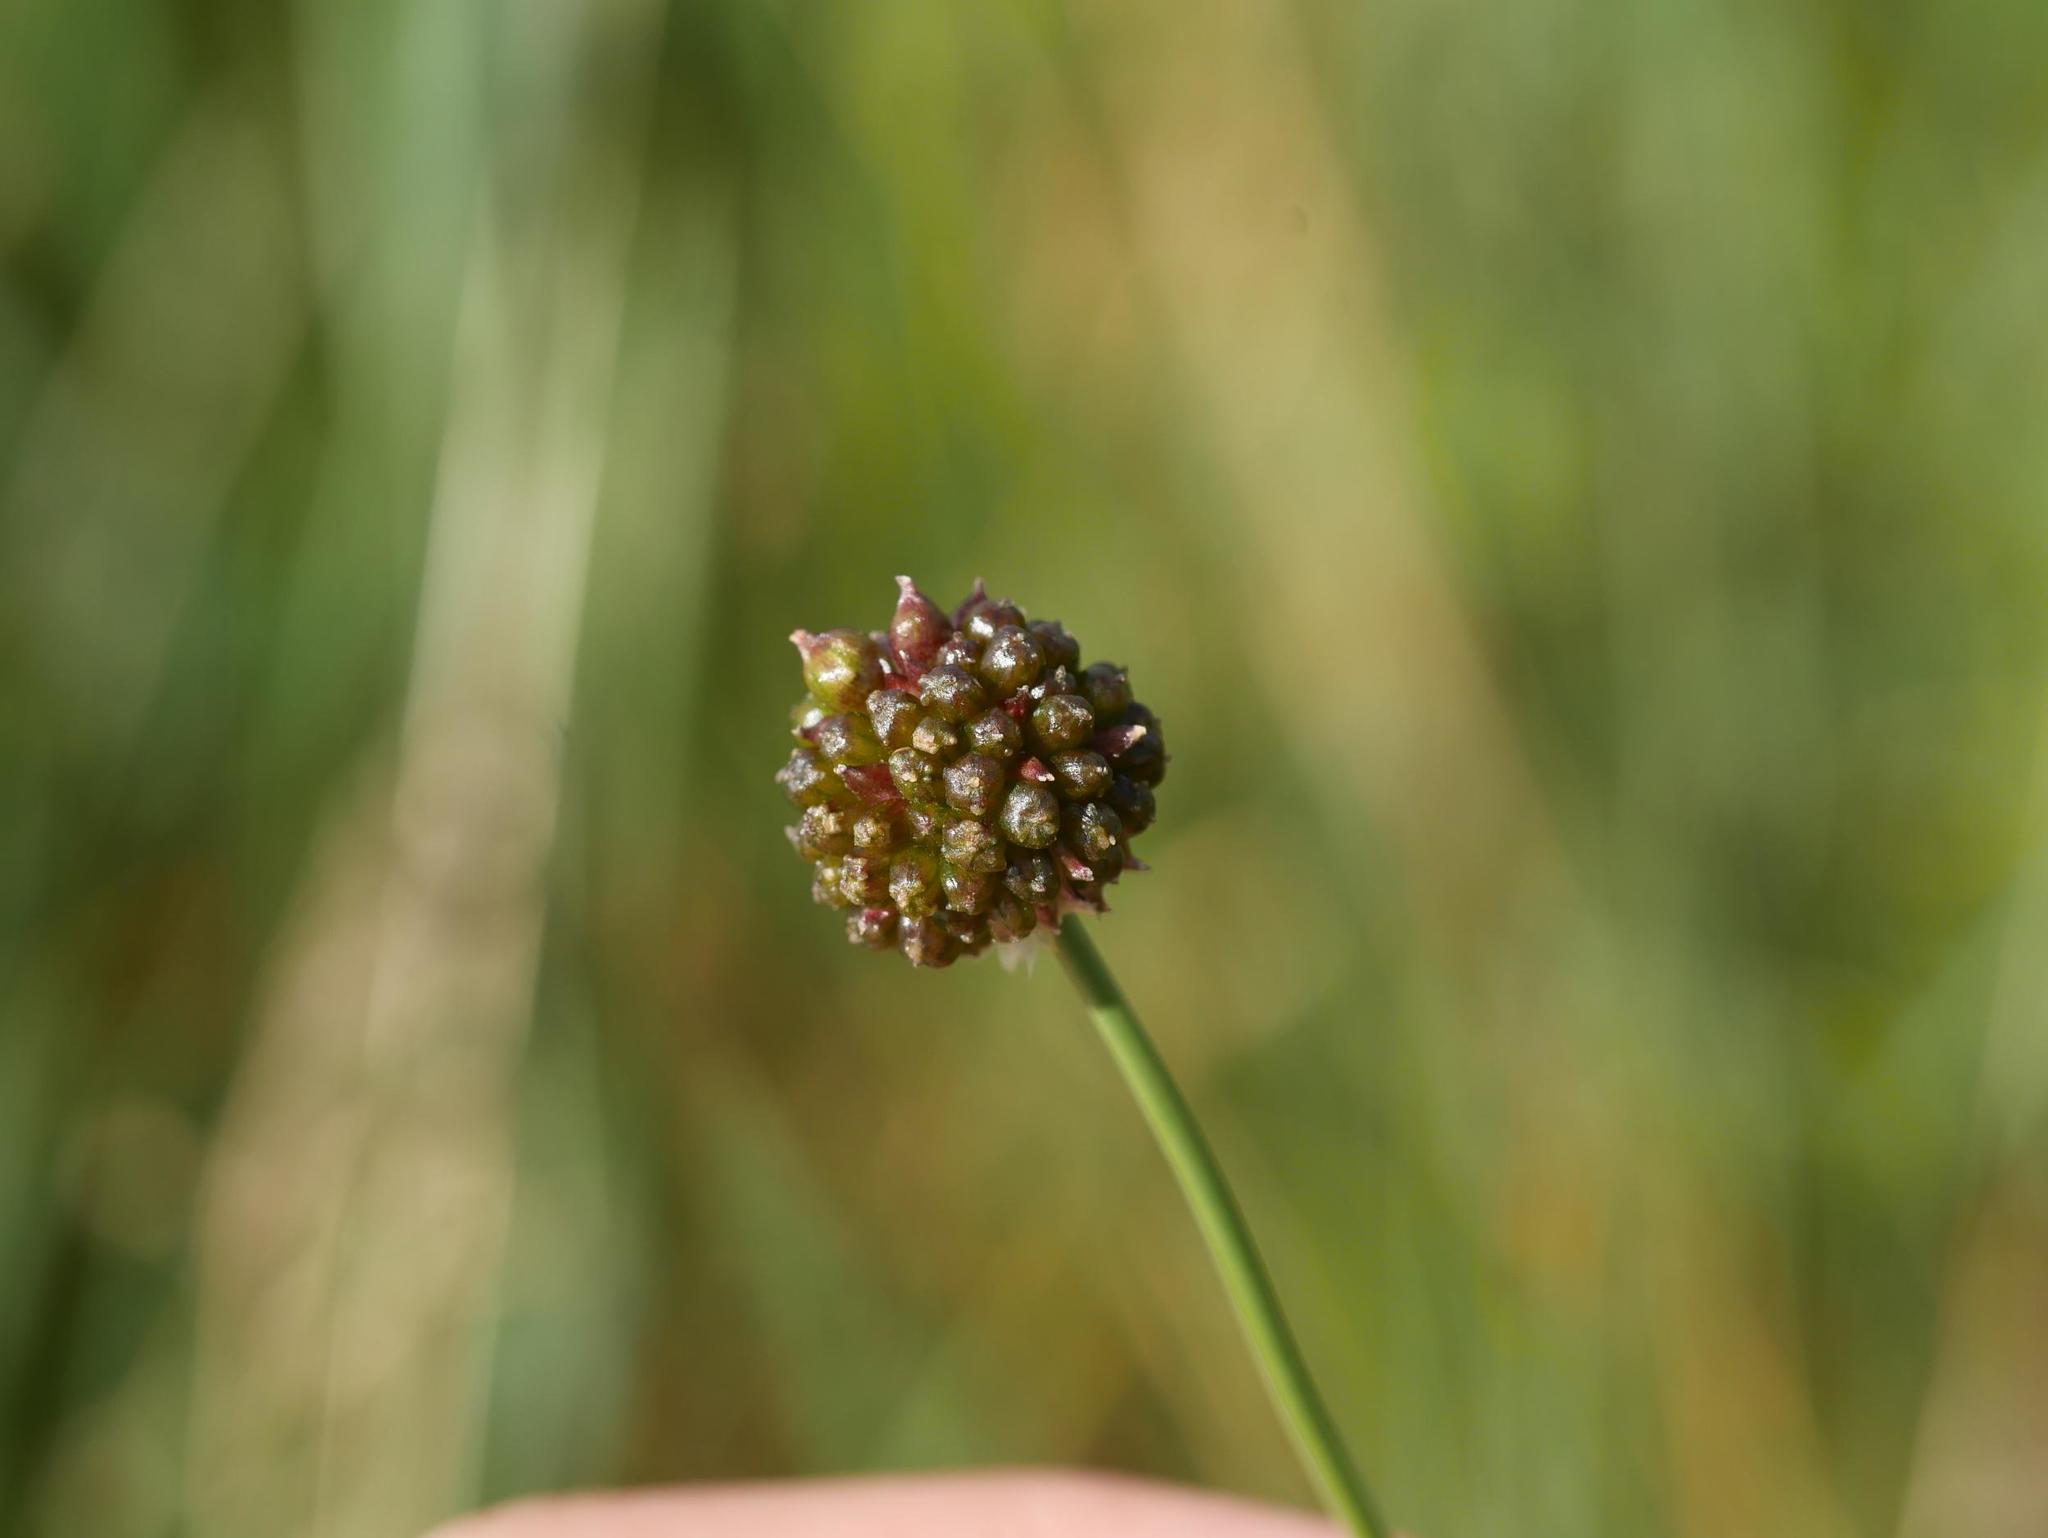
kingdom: Plantae
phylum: Tracheophyta
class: Liliopsida
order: Asparagales
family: Amaryllidaceae
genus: Allium
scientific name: Allium vineale
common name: Crow garlic
